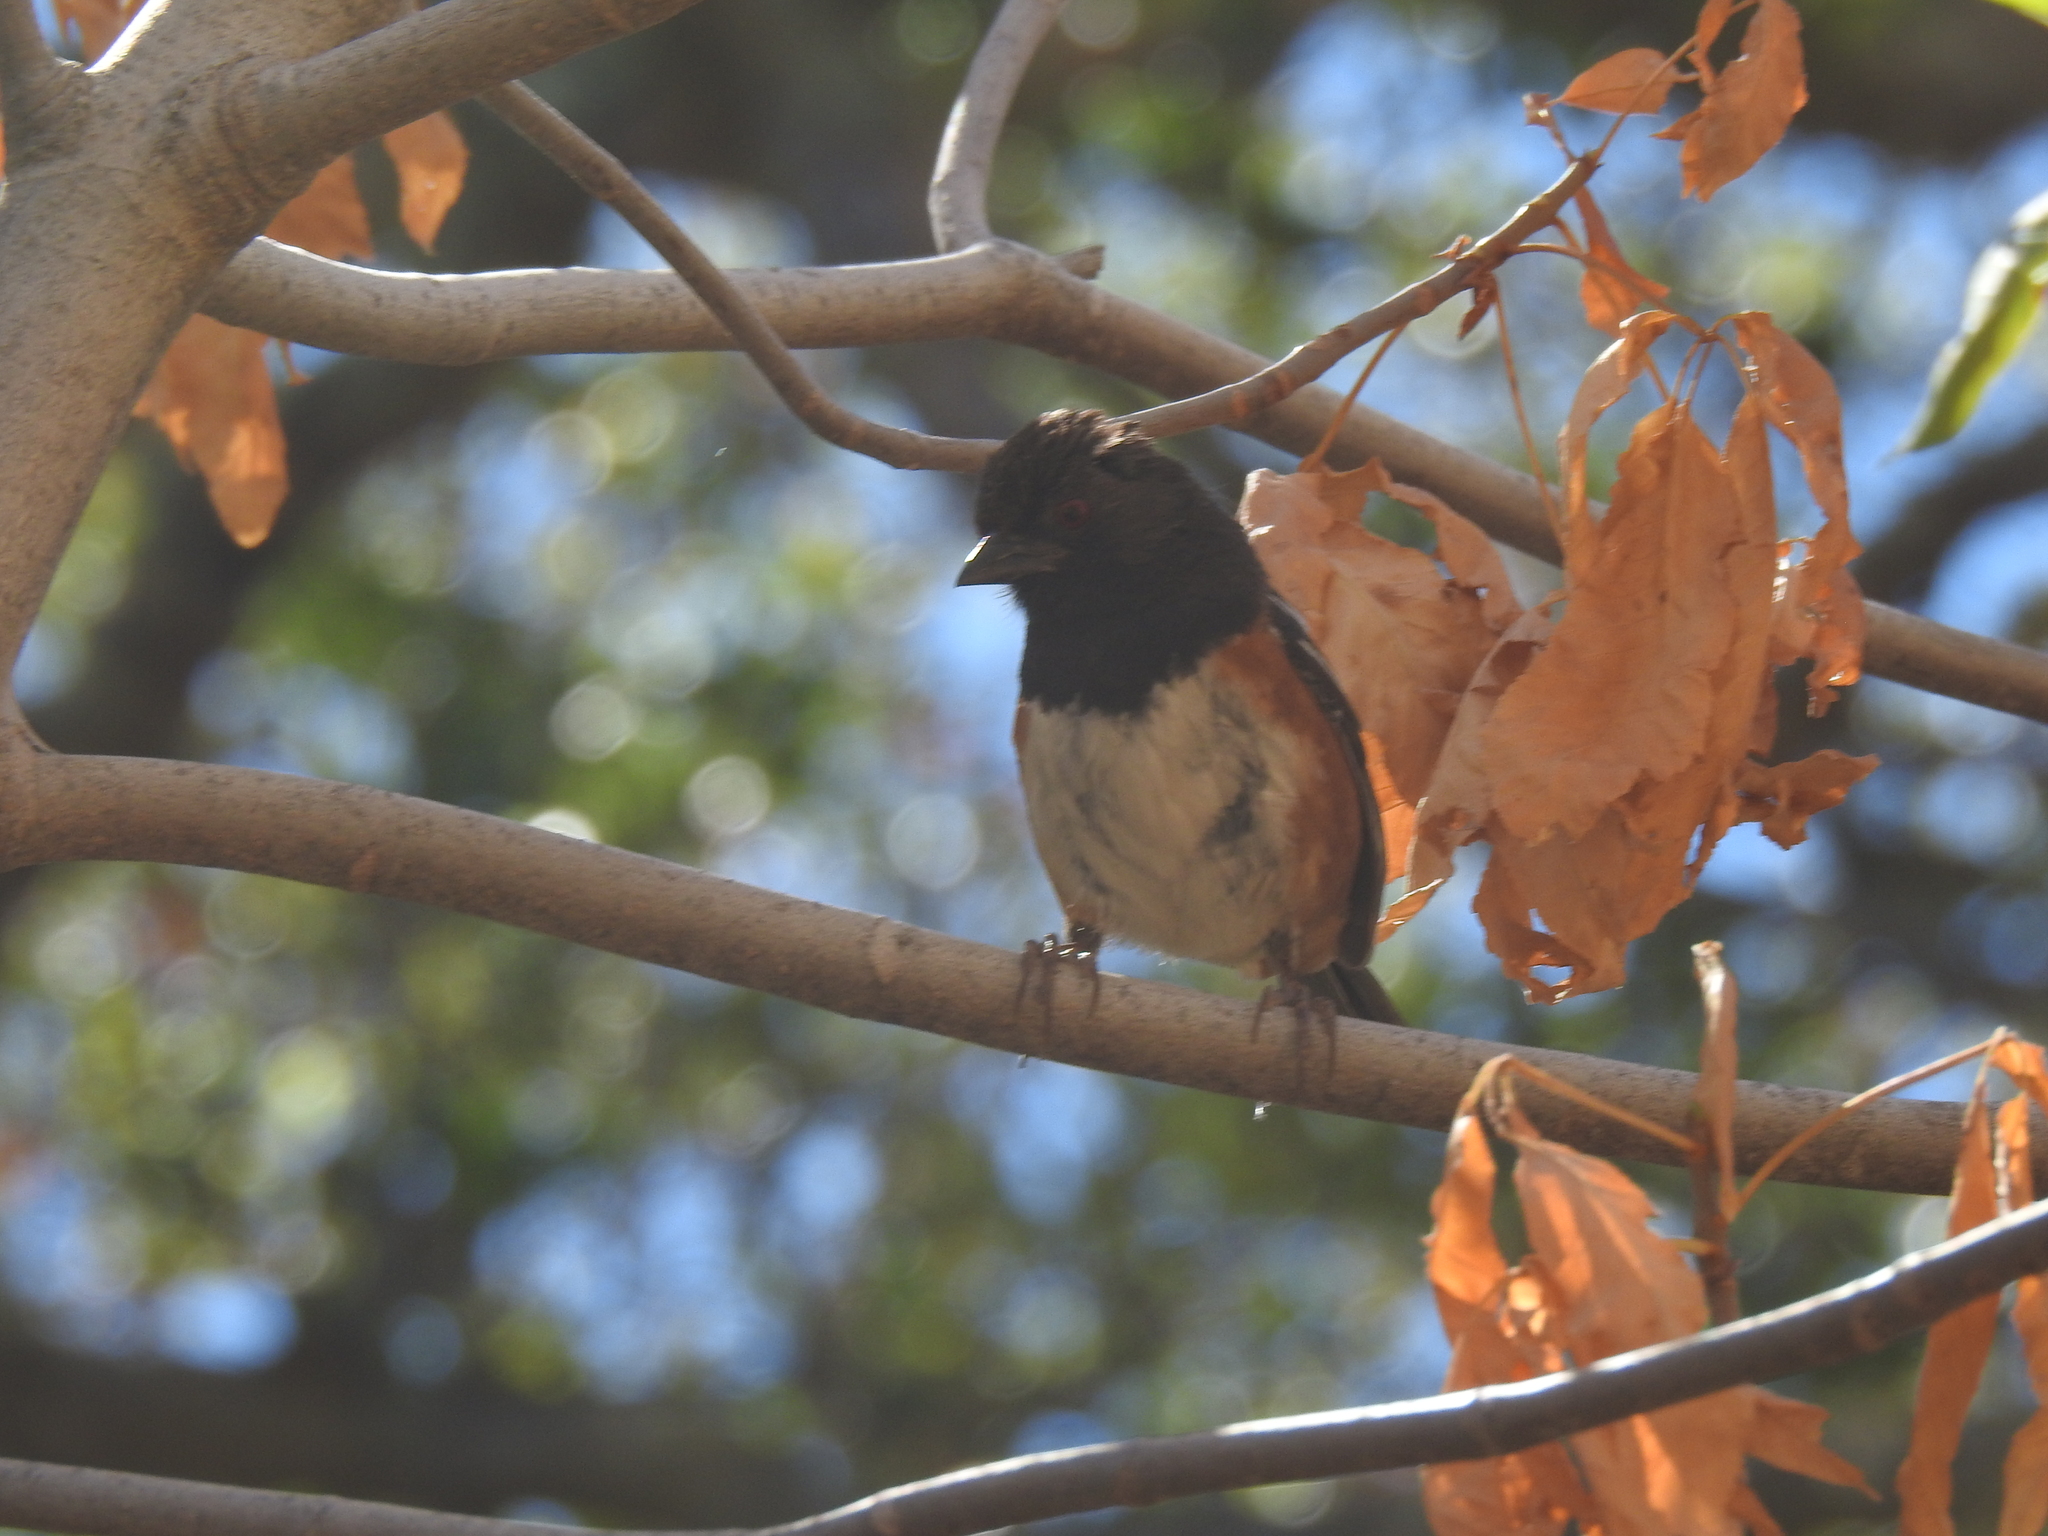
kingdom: Animalia
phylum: Chordata
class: Aves
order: Passeriformes
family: Passerellidae
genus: Pipilo
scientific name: Pipilo maculatus
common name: Spotted towhee
